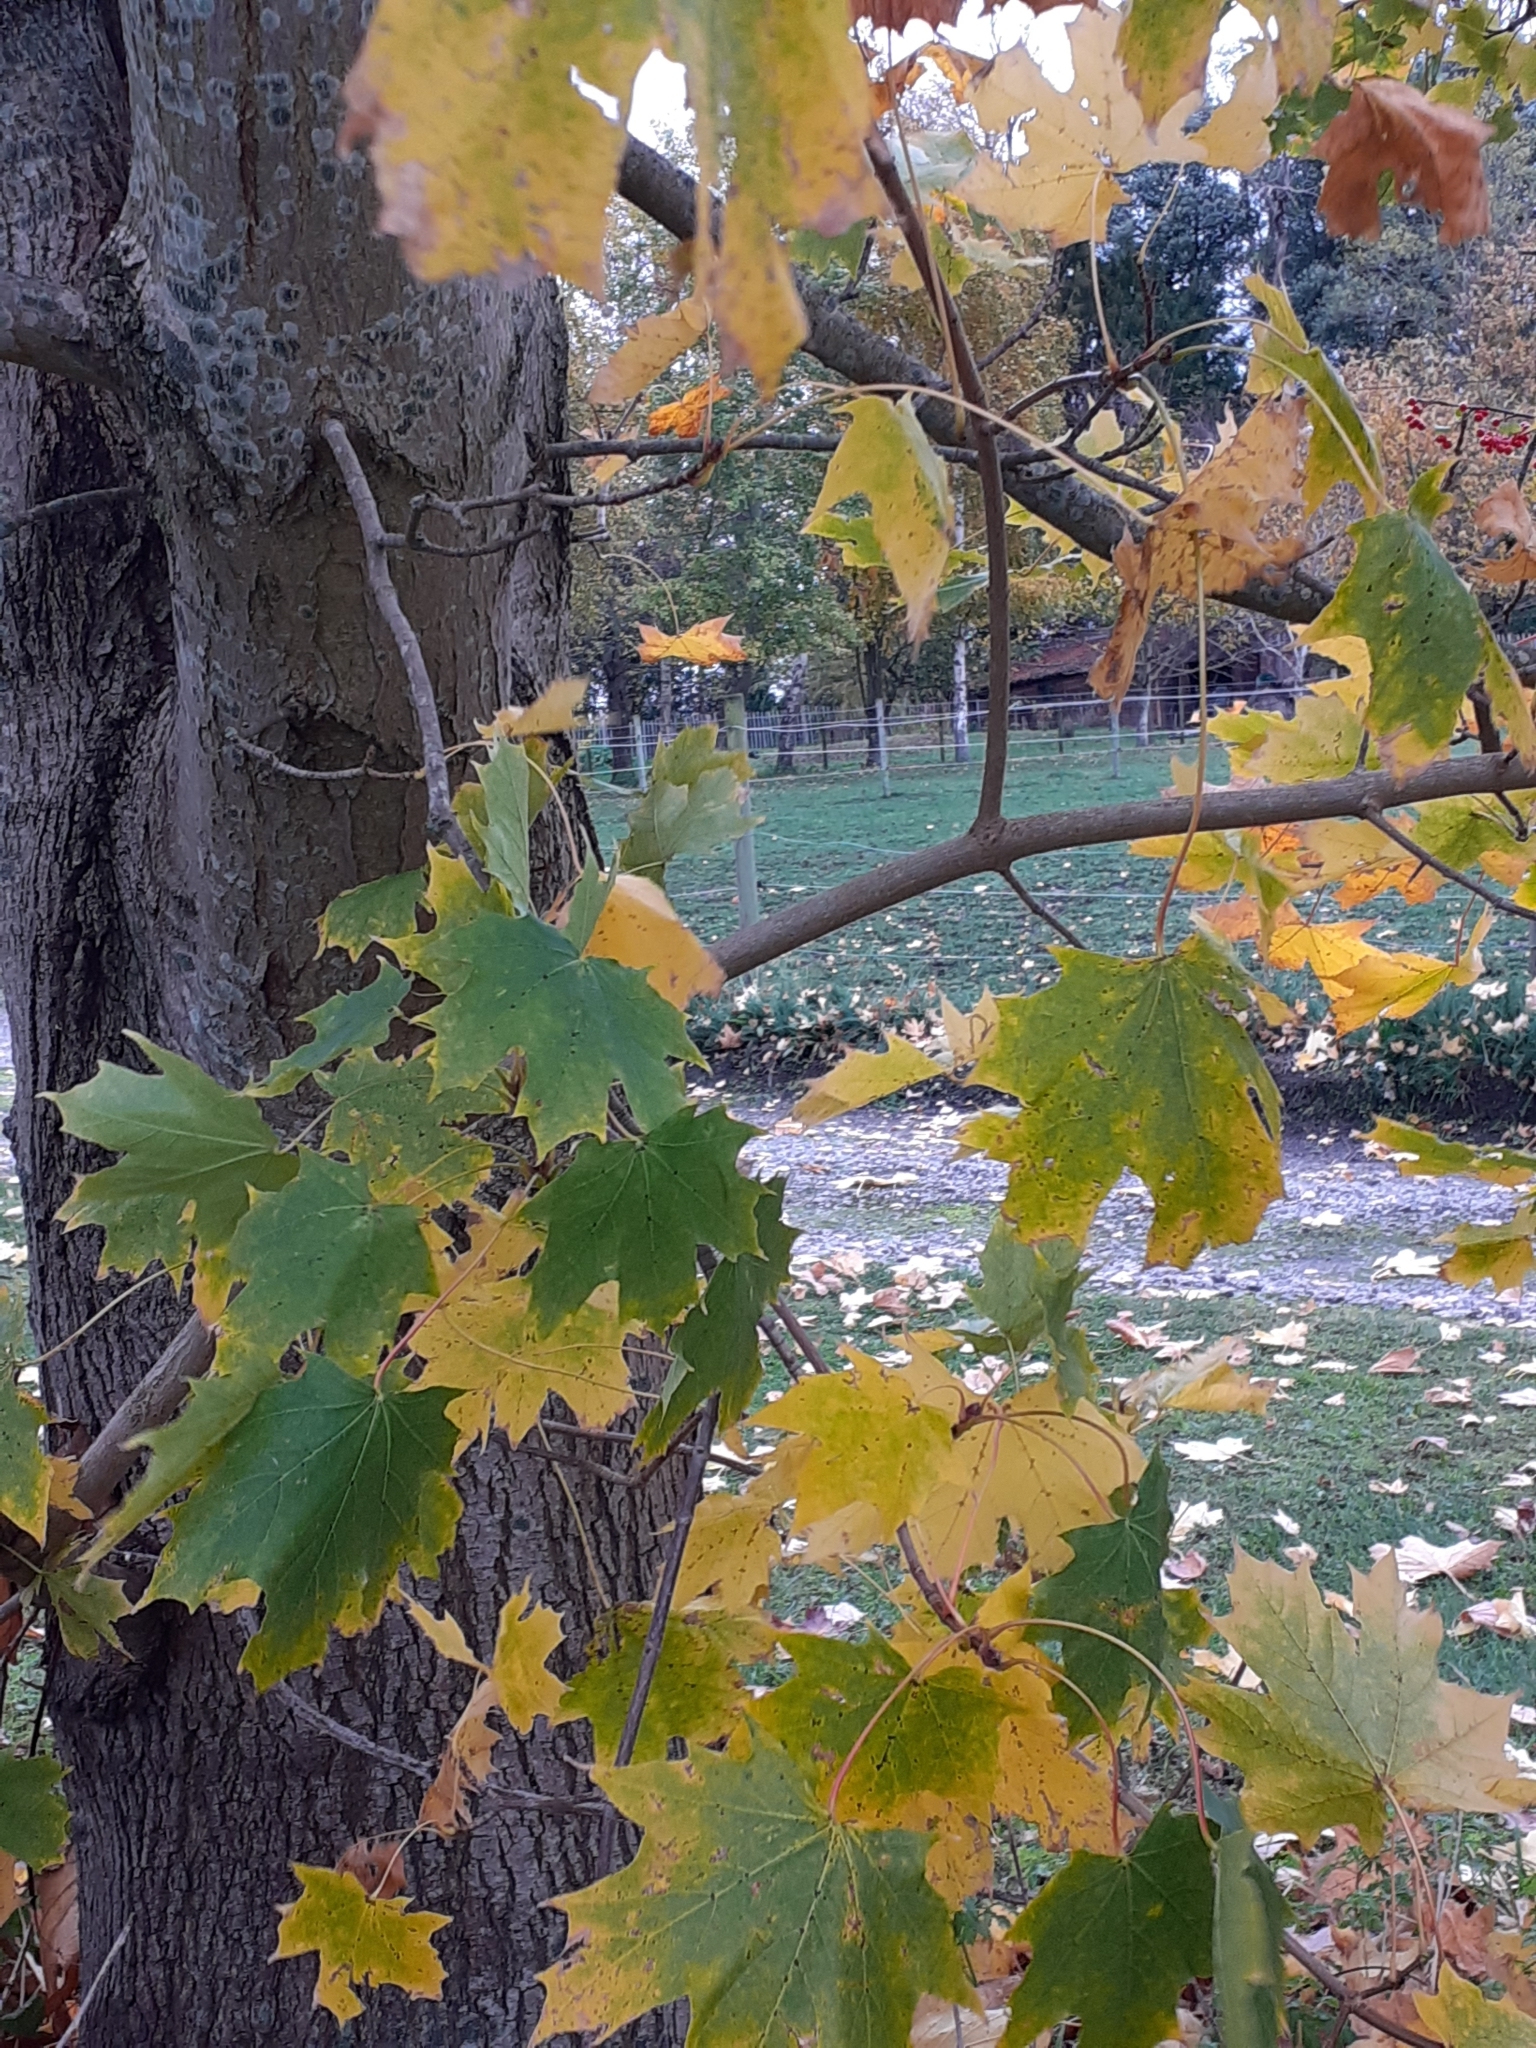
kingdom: Plantae
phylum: Tracheophyta
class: Magnoliopsida
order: Sapindales
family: Sapindaceae
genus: Acer
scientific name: Acer platanoides
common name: Norway maple
